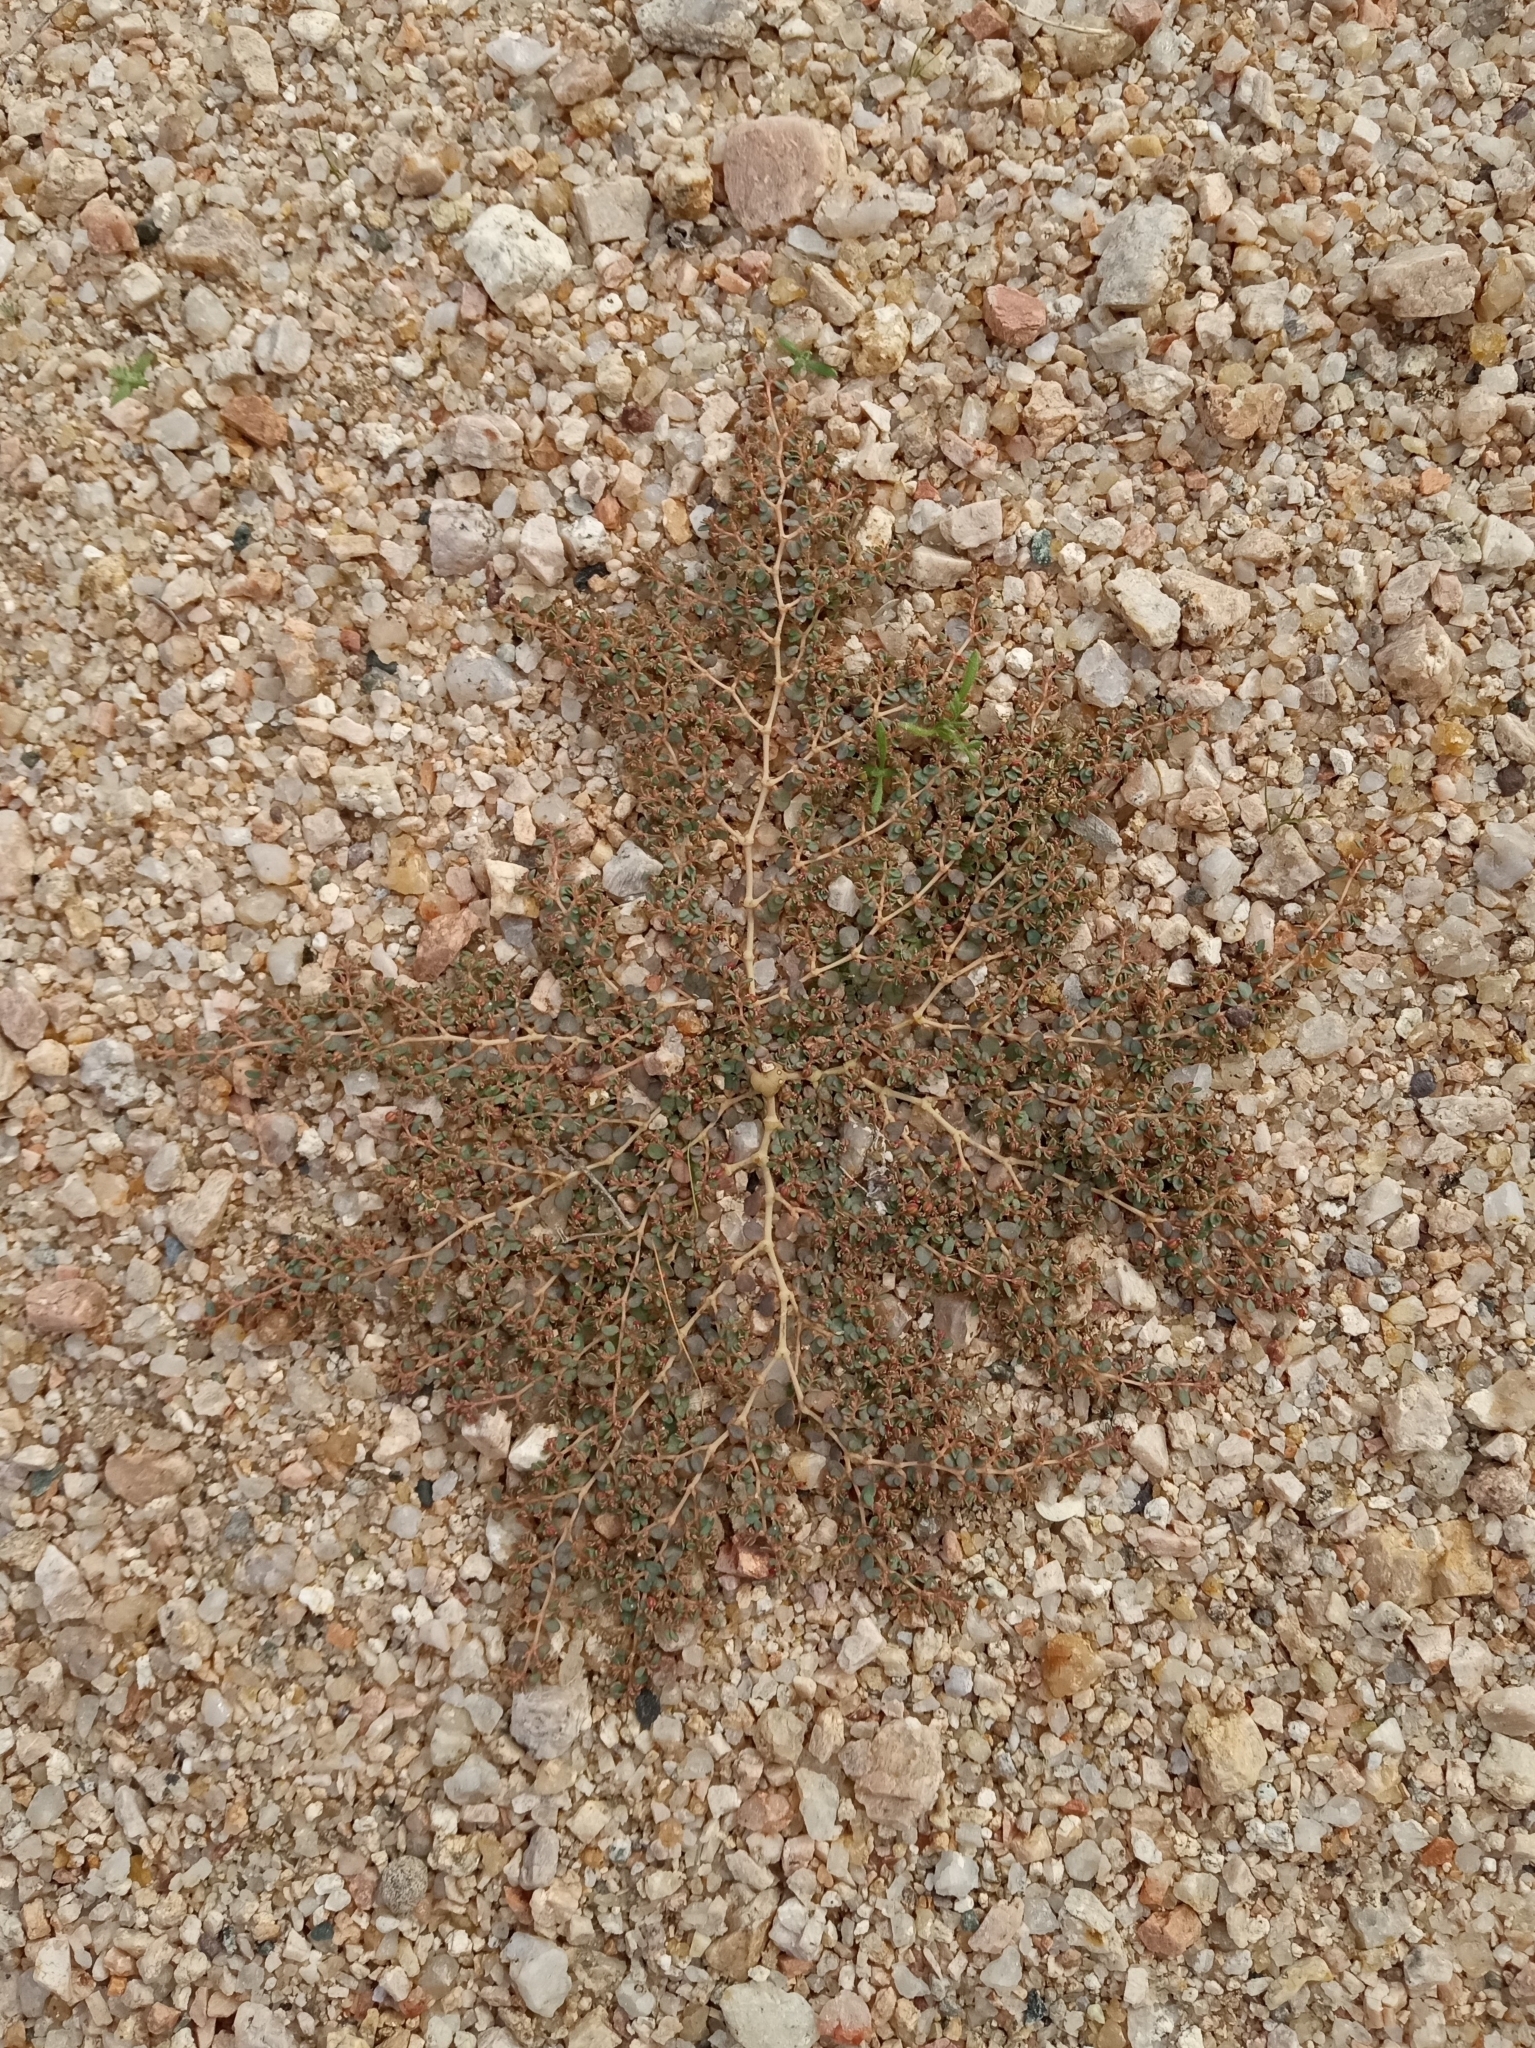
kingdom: Plantae
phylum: Tracheophyta
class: Magnoliopsida
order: Malpighiales
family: Euphorbiaceae
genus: Euphorbia
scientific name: Euphorbia micromera
